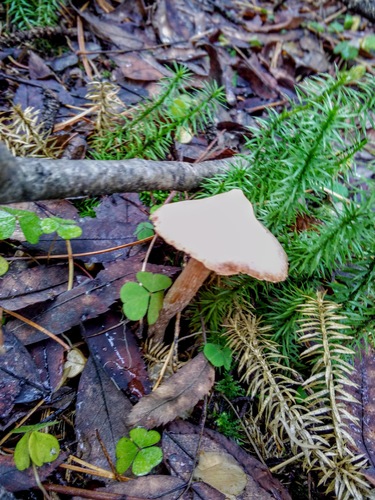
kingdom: Fungi
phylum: Basidiomycota
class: Agaricomycetes
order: Agaricales
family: Cortinariaceae
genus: Cortinarius
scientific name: Cortinarius
